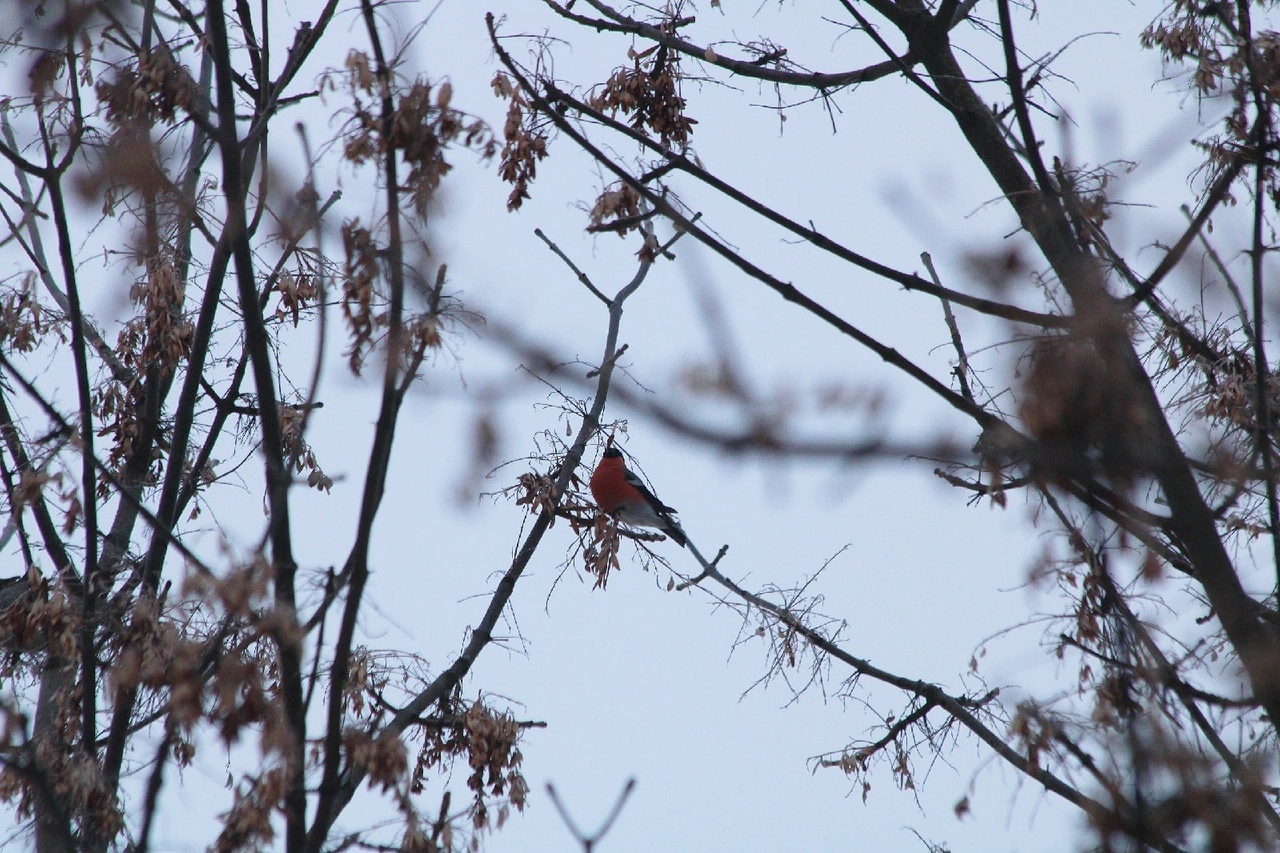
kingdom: Animalia
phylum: Chordata
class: Aves
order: Passeriformes
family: Fringillidae
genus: Pyrrhula
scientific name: Pyrrhula pyrrhula
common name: Eurasian bullfinch
